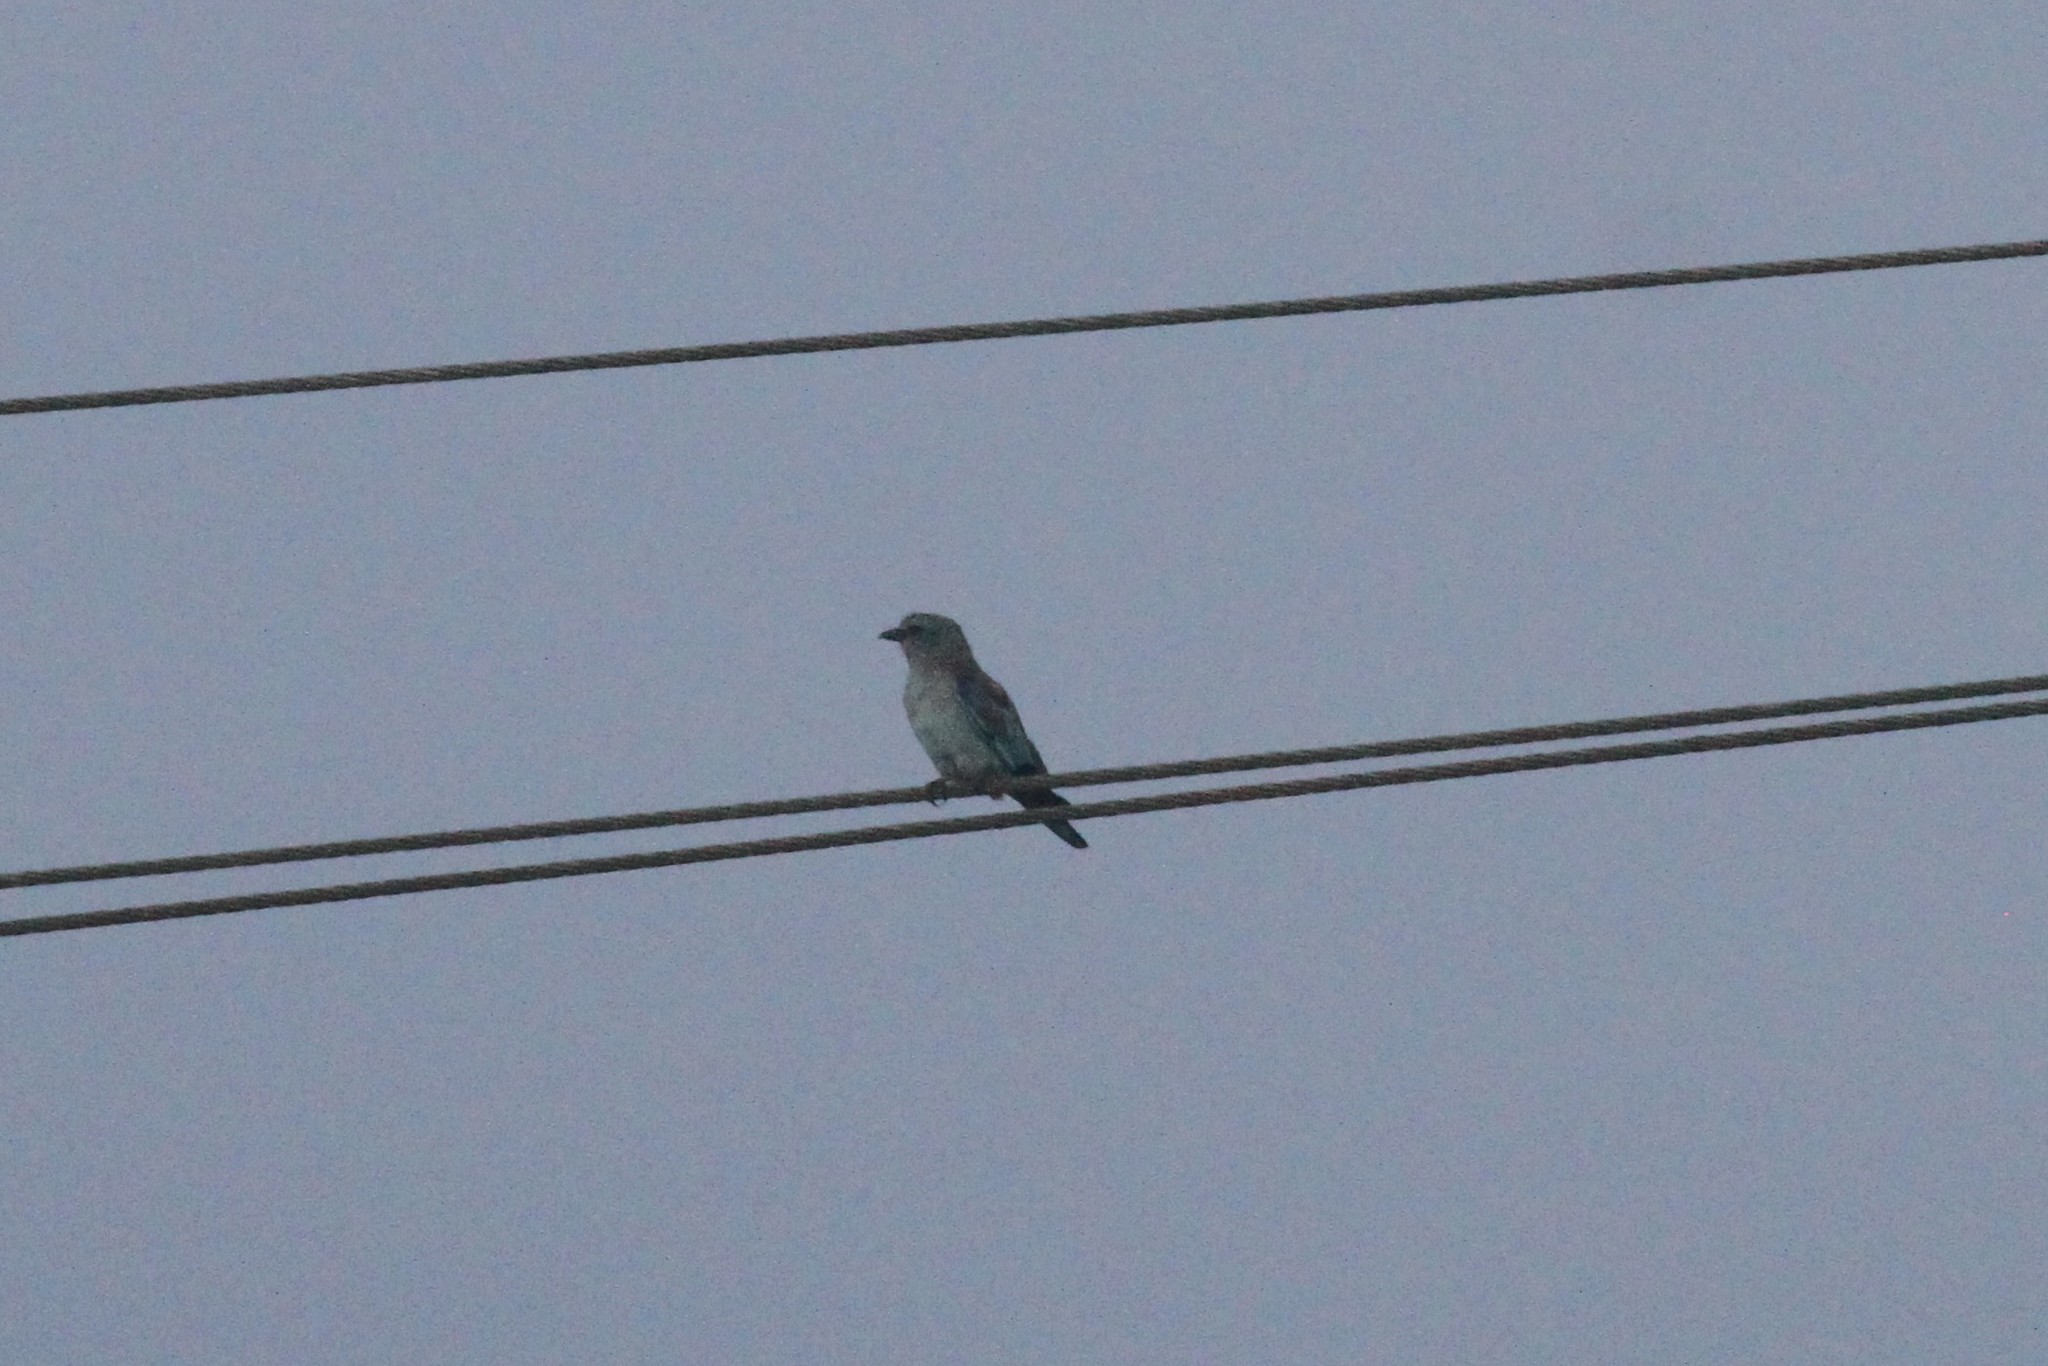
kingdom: Animalia
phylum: Chordata
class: Aves
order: Coraciiformes
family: Coraciidae
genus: Coracias
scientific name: Coracias garrulus
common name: European roller
